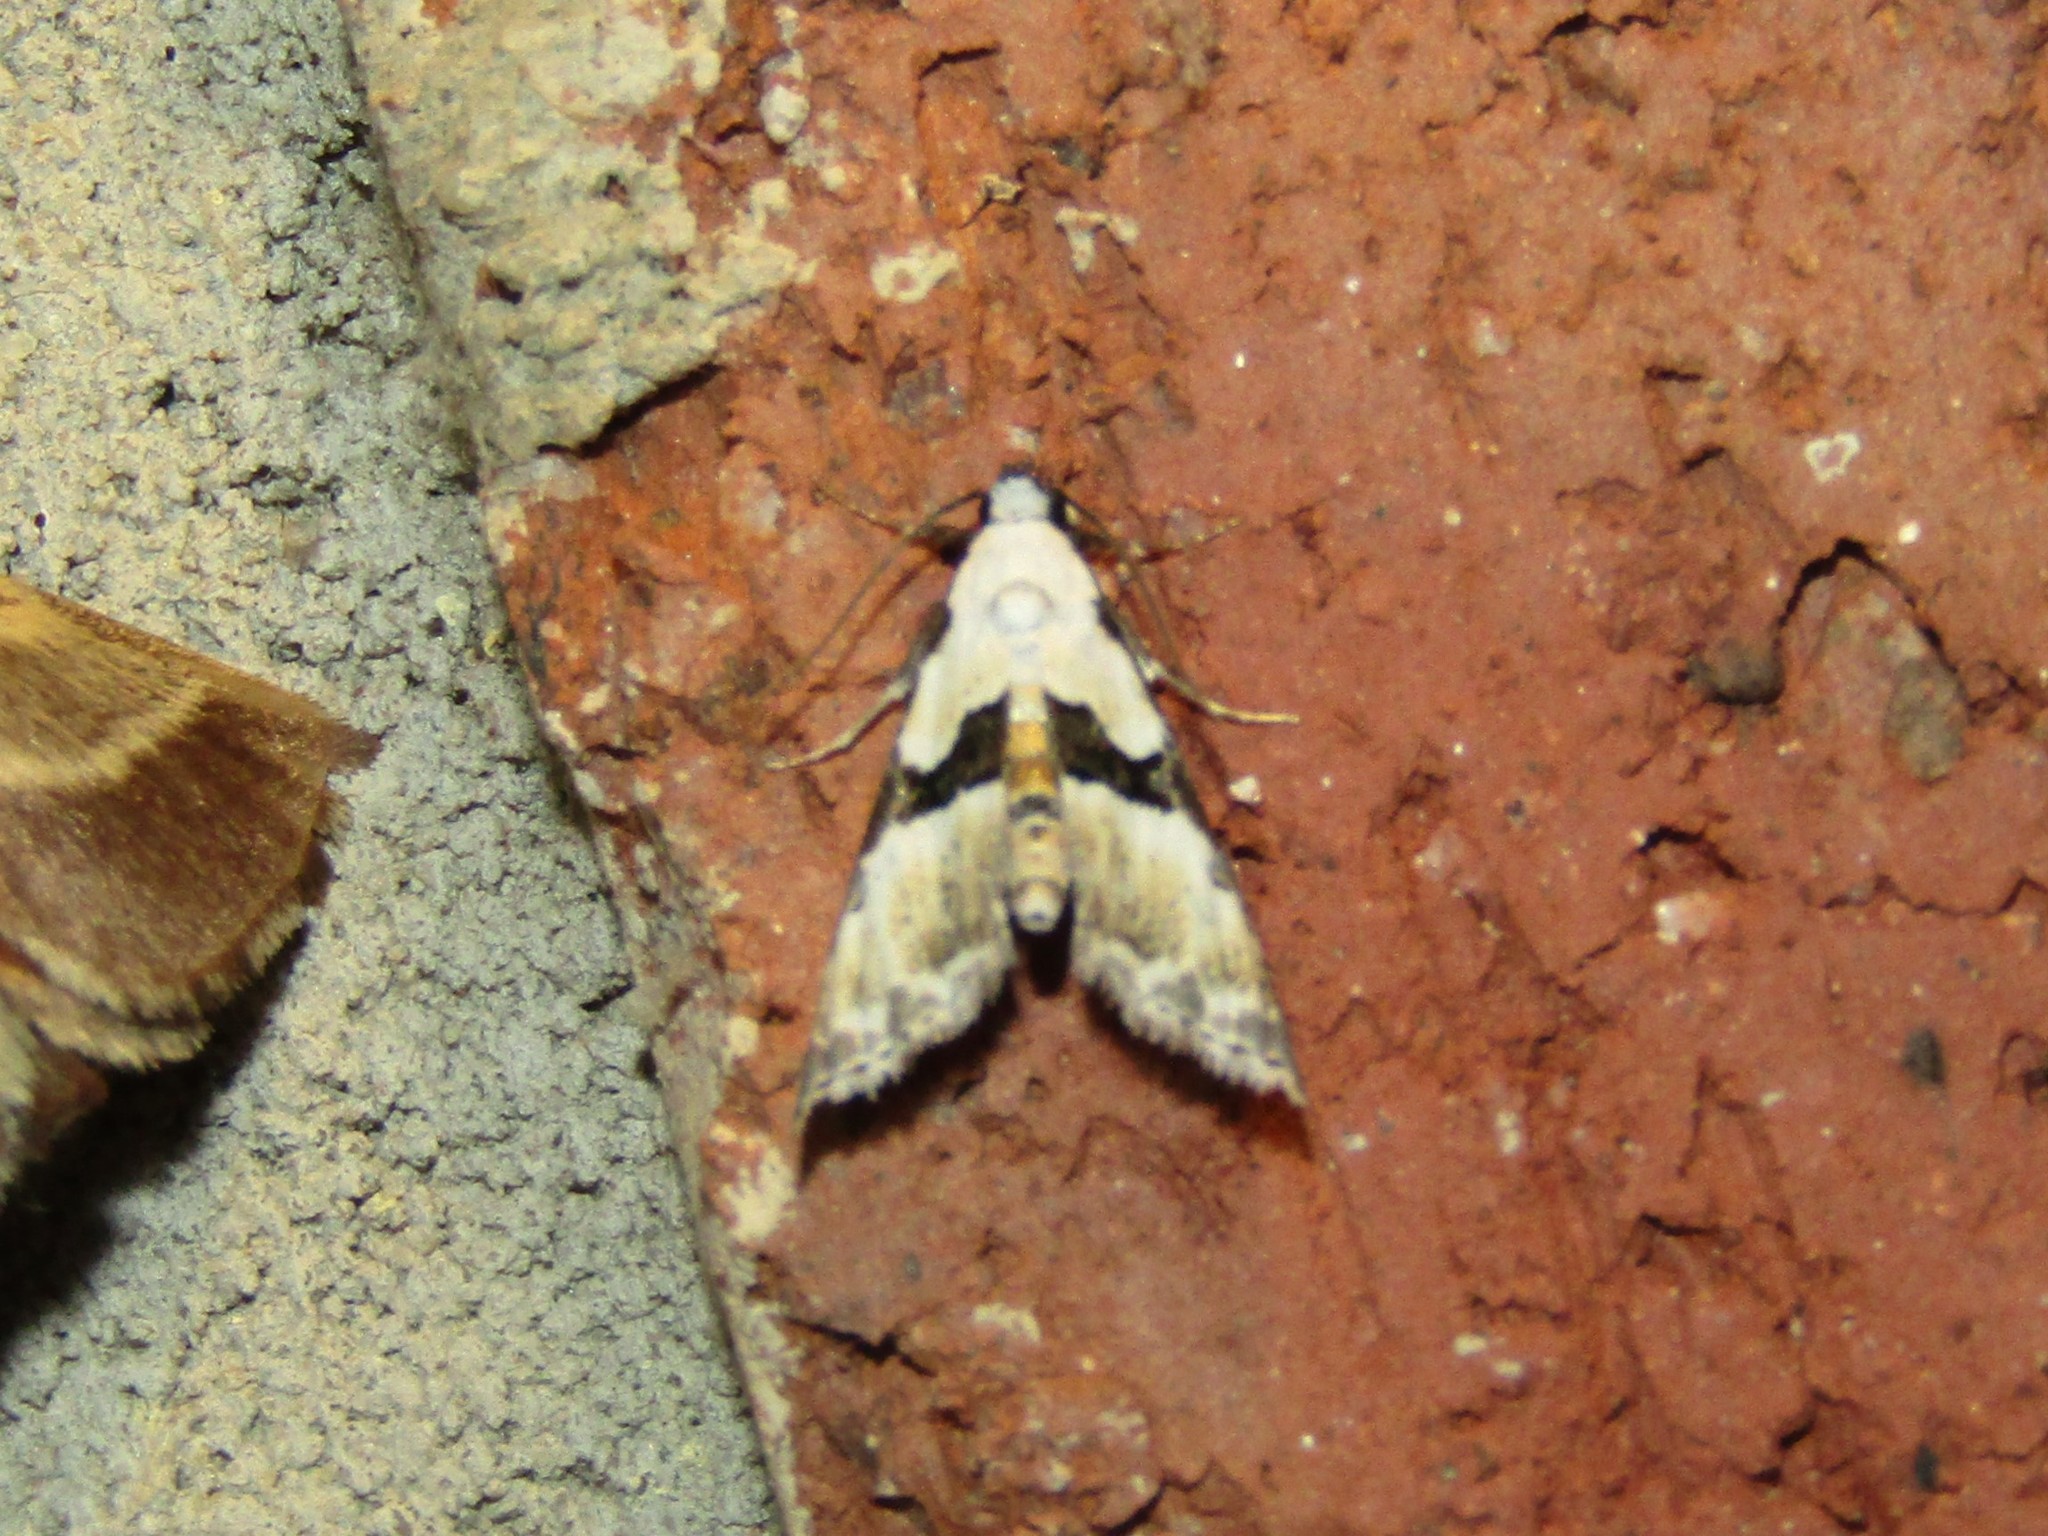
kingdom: Animalia
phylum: Arthropoda
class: Insecta
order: Lepidoptera
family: Noctuidae
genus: Nigetia
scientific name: Nigetia formosalis
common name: Thin-winged owlet
